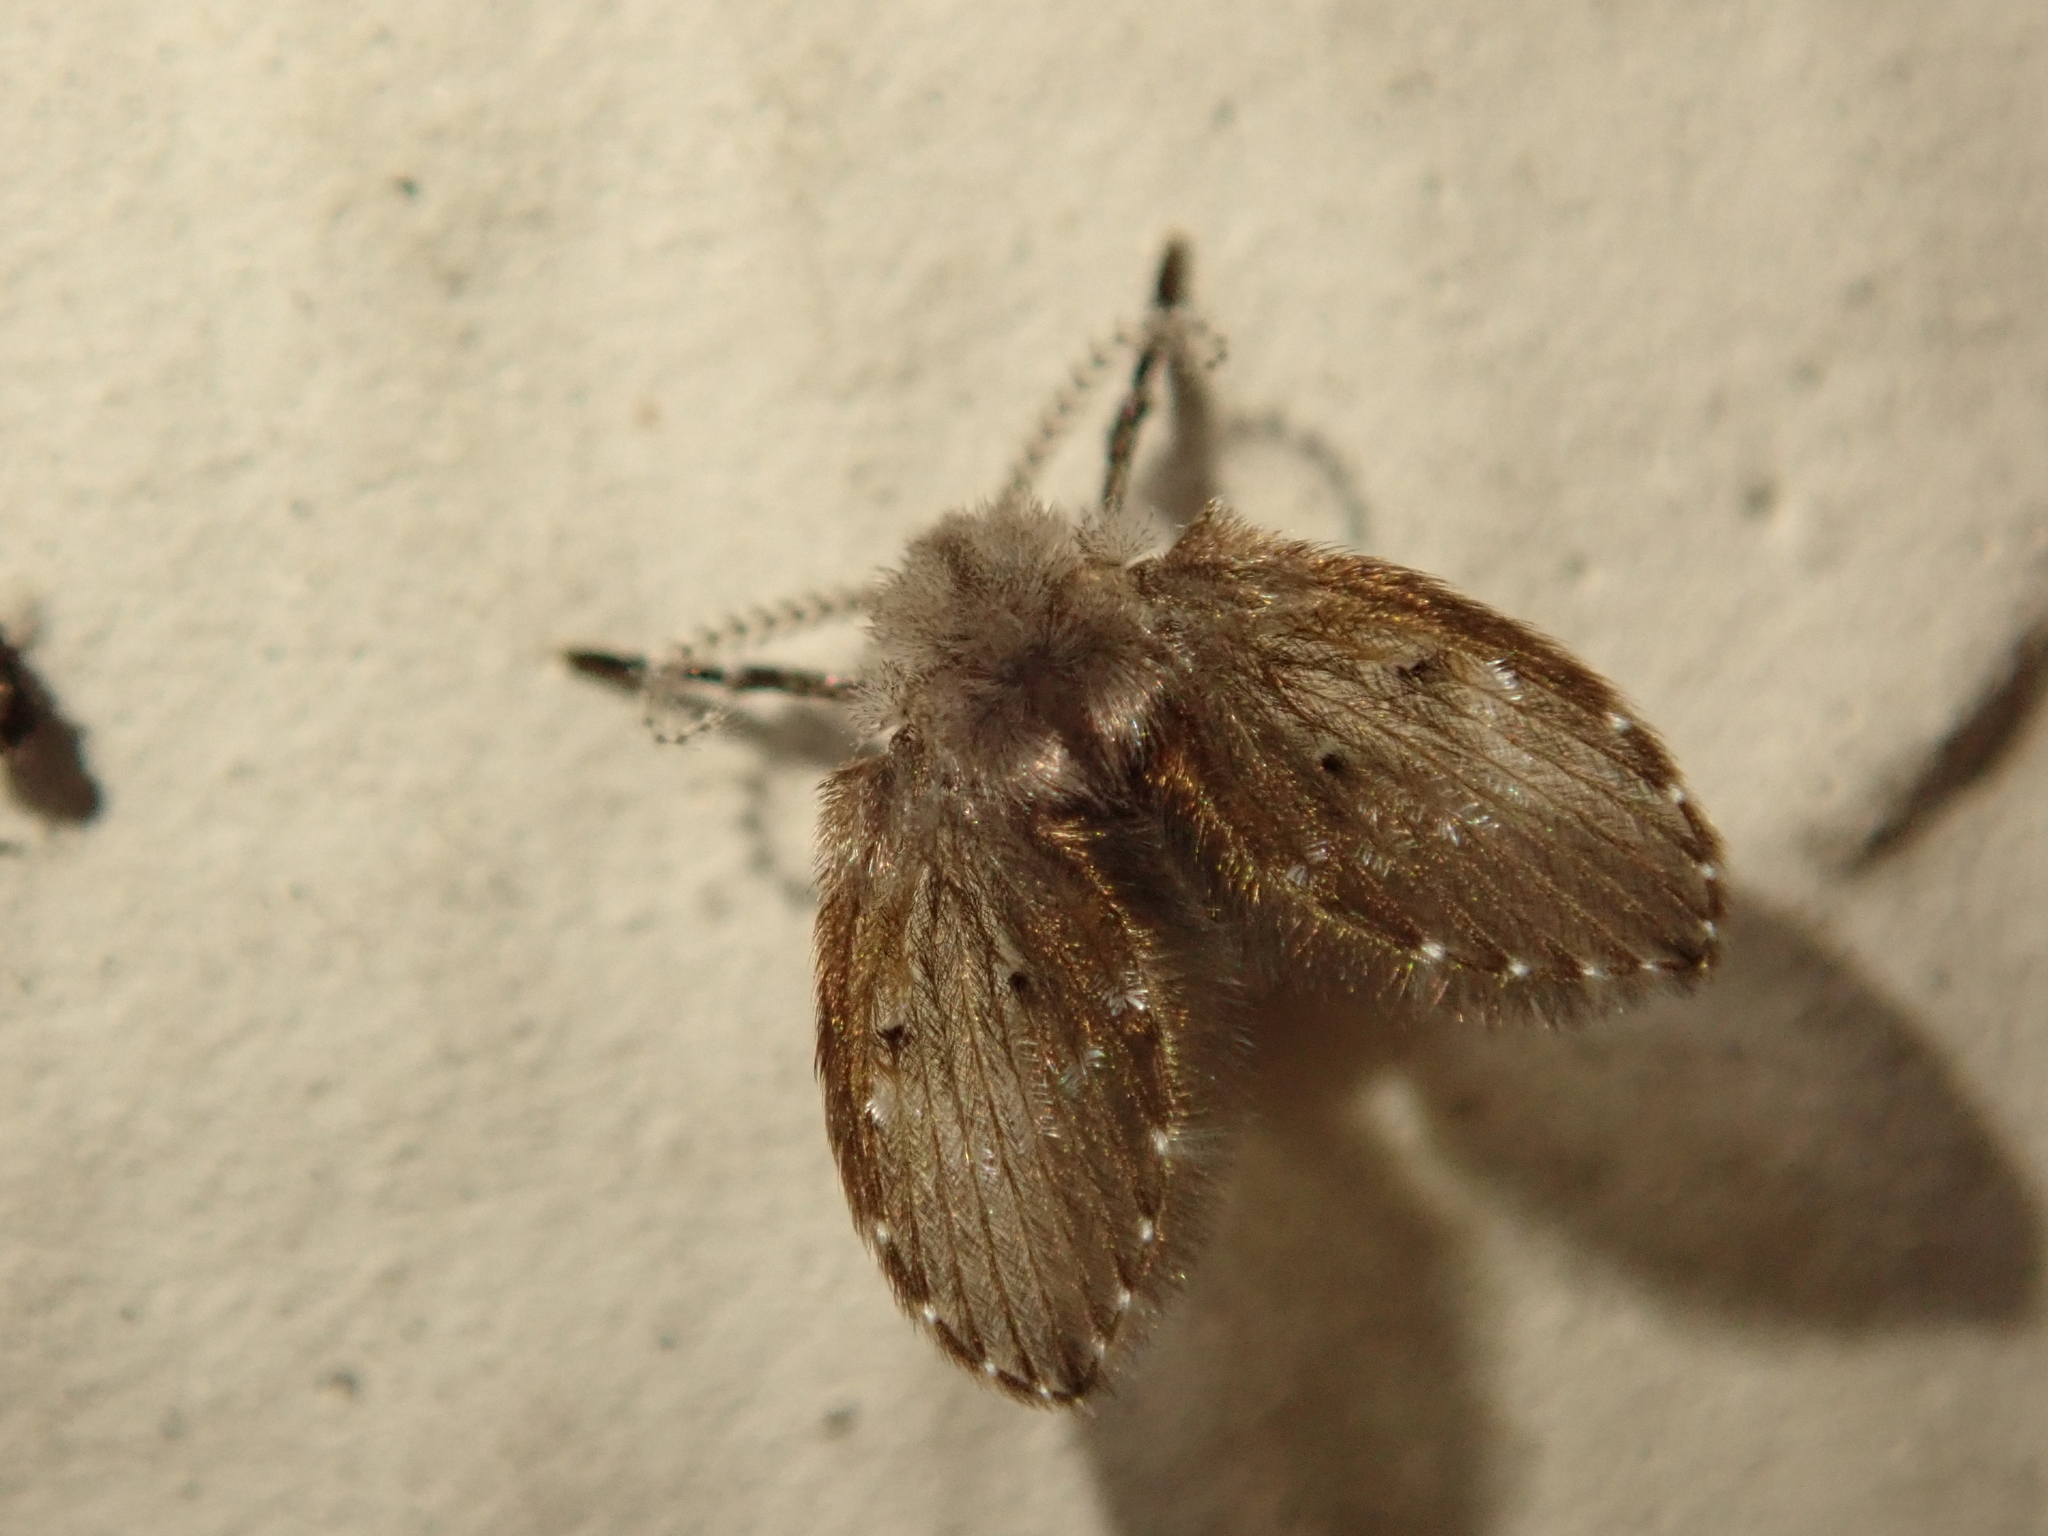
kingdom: Animalia
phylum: Arthropoda
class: Insecta
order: Diptera
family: Psychodidae
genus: Clogmia
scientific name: Clogmia albipunctatus
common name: White-spotted moth fly
